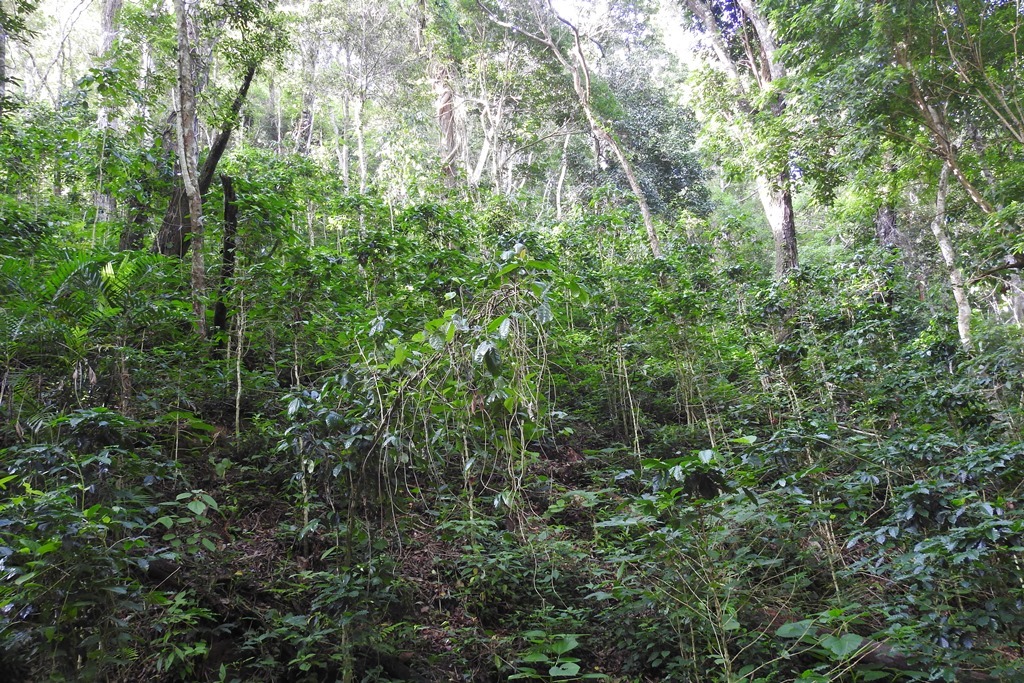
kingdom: Plantae
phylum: Tracheophyta
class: Magnoliopsida
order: Gentianales
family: Rubiaceae
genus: Coffea
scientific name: Coffea arabica
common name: Coffee
